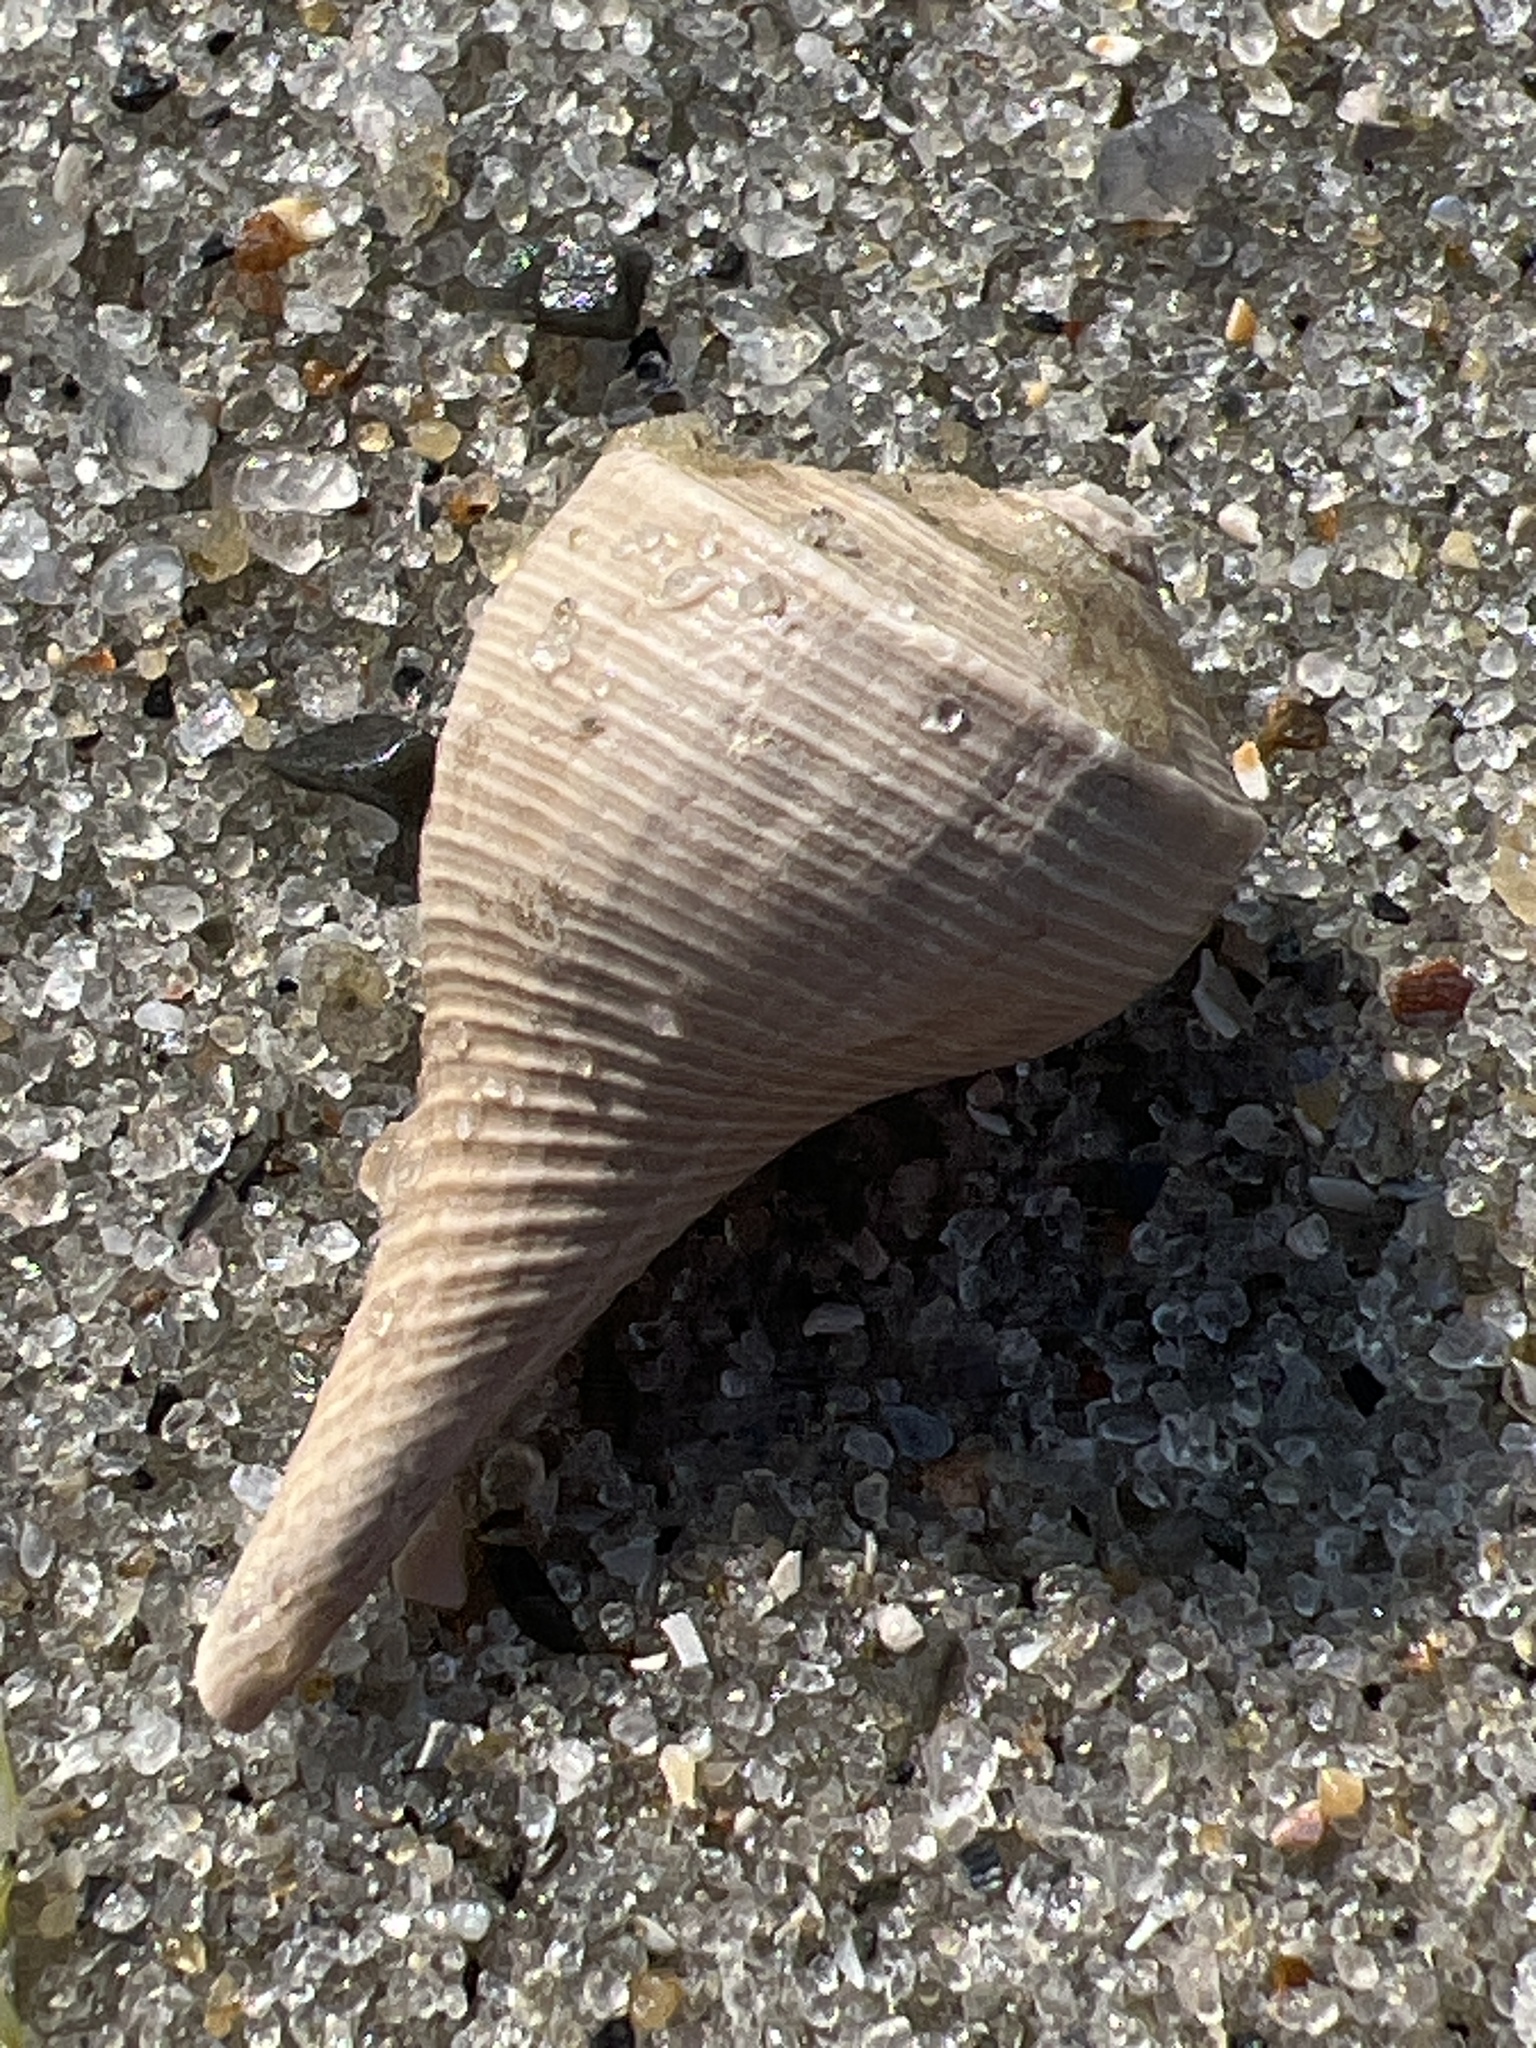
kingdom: Animalia
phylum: Mollusca
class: Gastropoda
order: Neogastropoda
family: Busyconidae
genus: Busycotypus
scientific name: Busycotypus canaliculatus
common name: Channeled whelk
